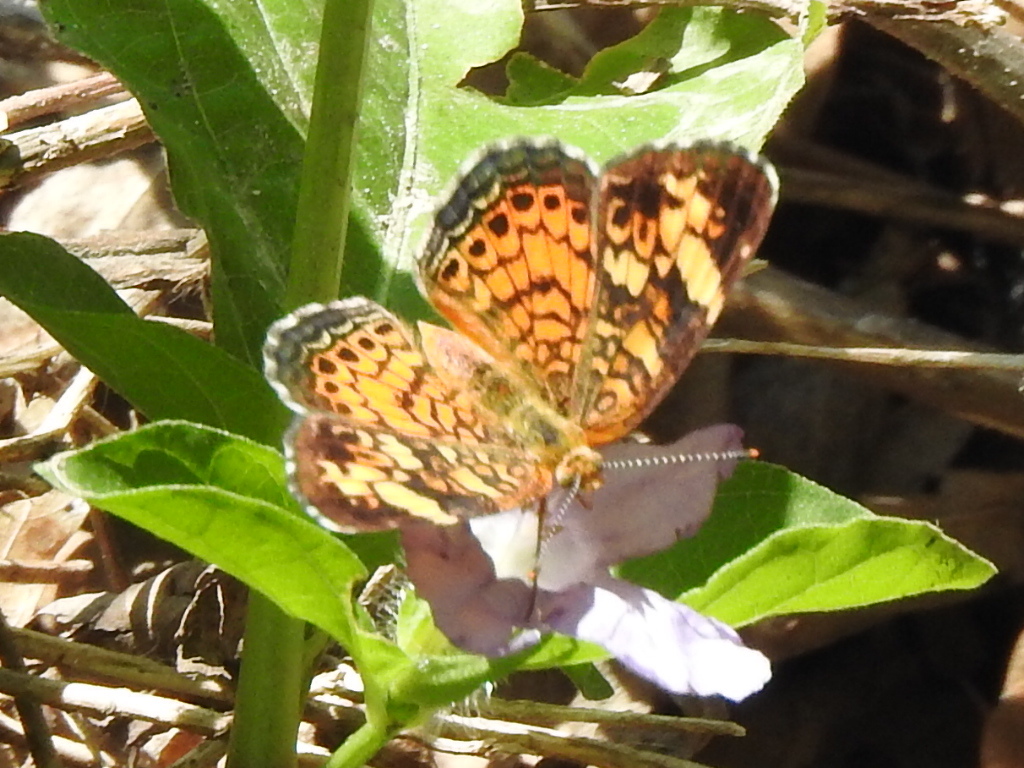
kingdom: Animalia
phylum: Arthropoda
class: Insecta
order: Lepidoptera
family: Nymphalidae
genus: Phyciodes
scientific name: Phyciodes tharos
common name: Pearl crescent
